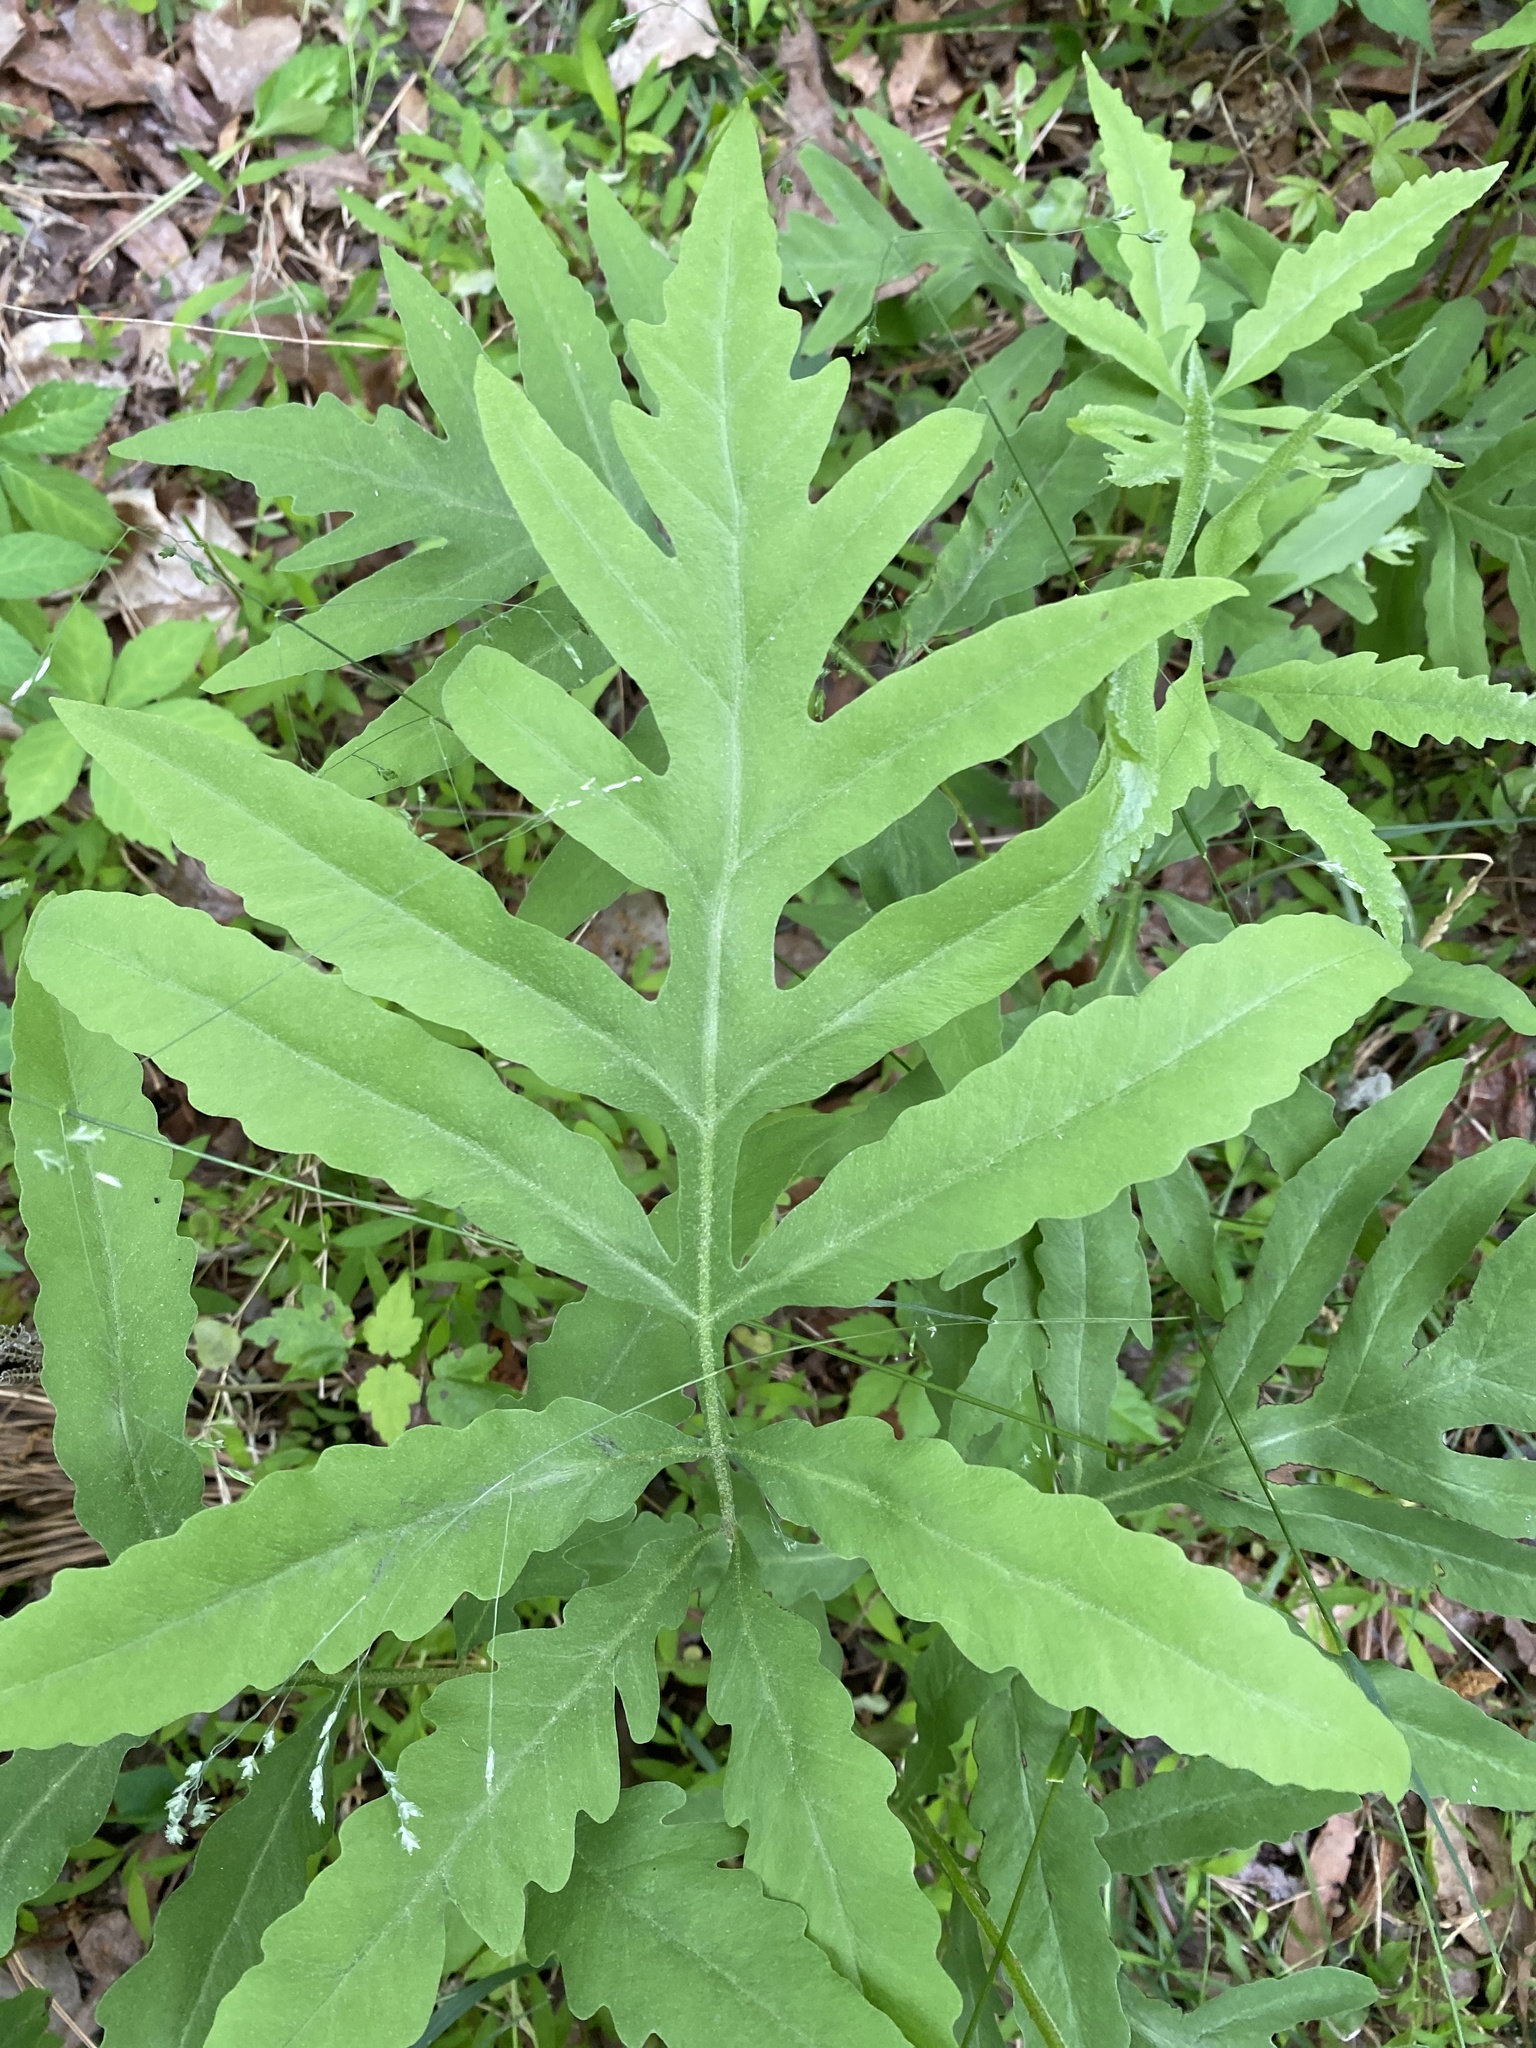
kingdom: Plantae
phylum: Tracheophyta
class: Polypodiopsida
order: Polypodiales
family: Onocleaceae
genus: Onoclea
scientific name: Onoclea sensibilis
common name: Sensitive fern
